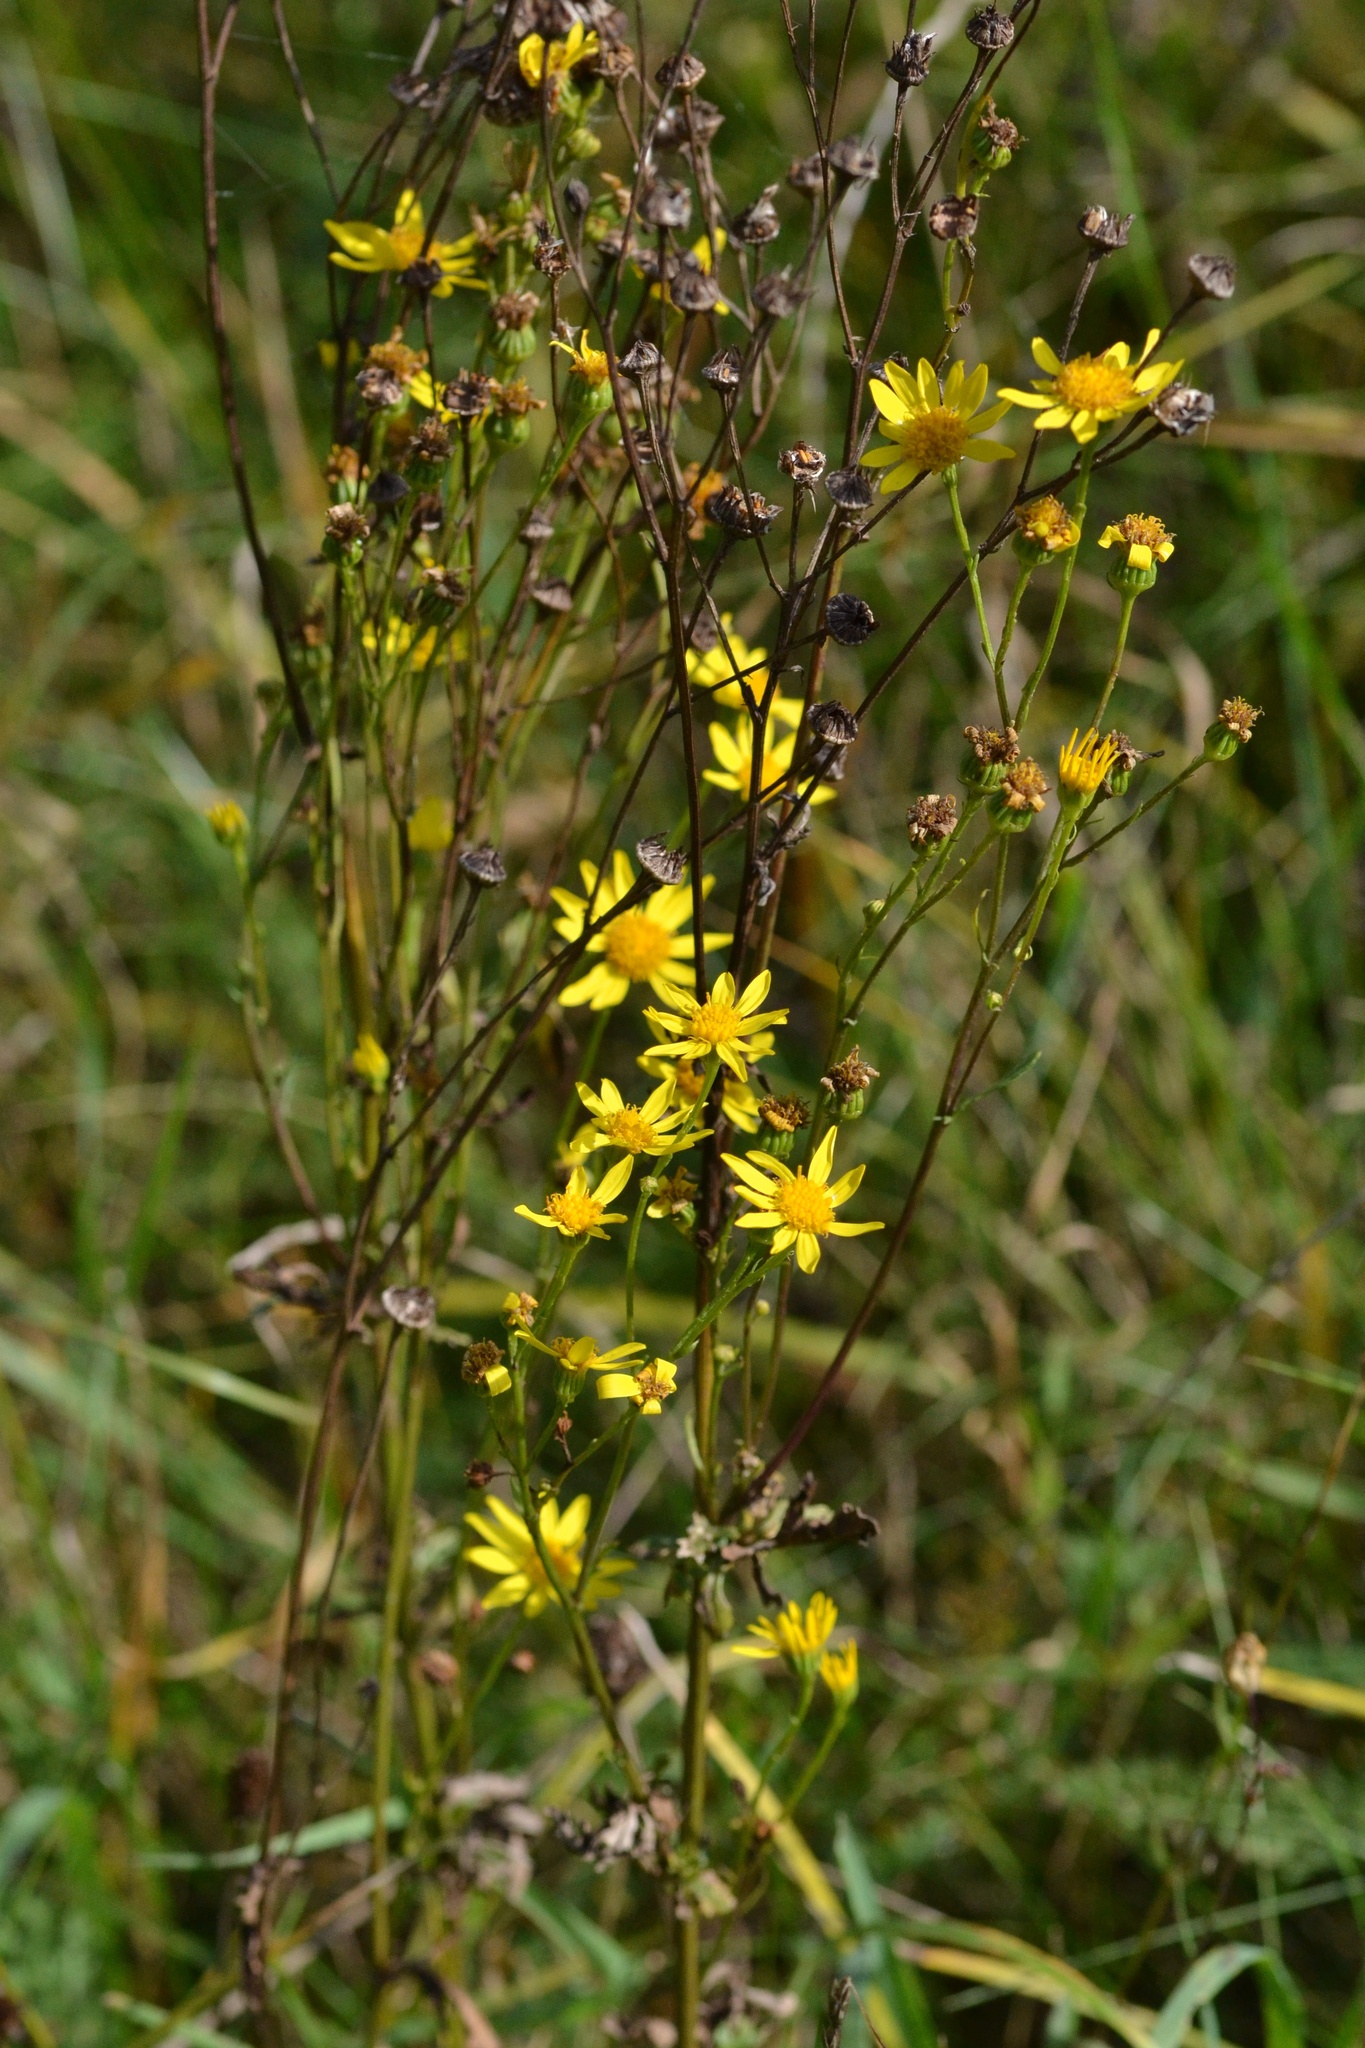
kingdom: Plantae
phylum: Tracheophyta
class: Magnoliopsida
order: Asterales
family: Asteraceae
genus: Jacobaea
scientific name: Jacobaea vulgaris
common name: Stinking willie
